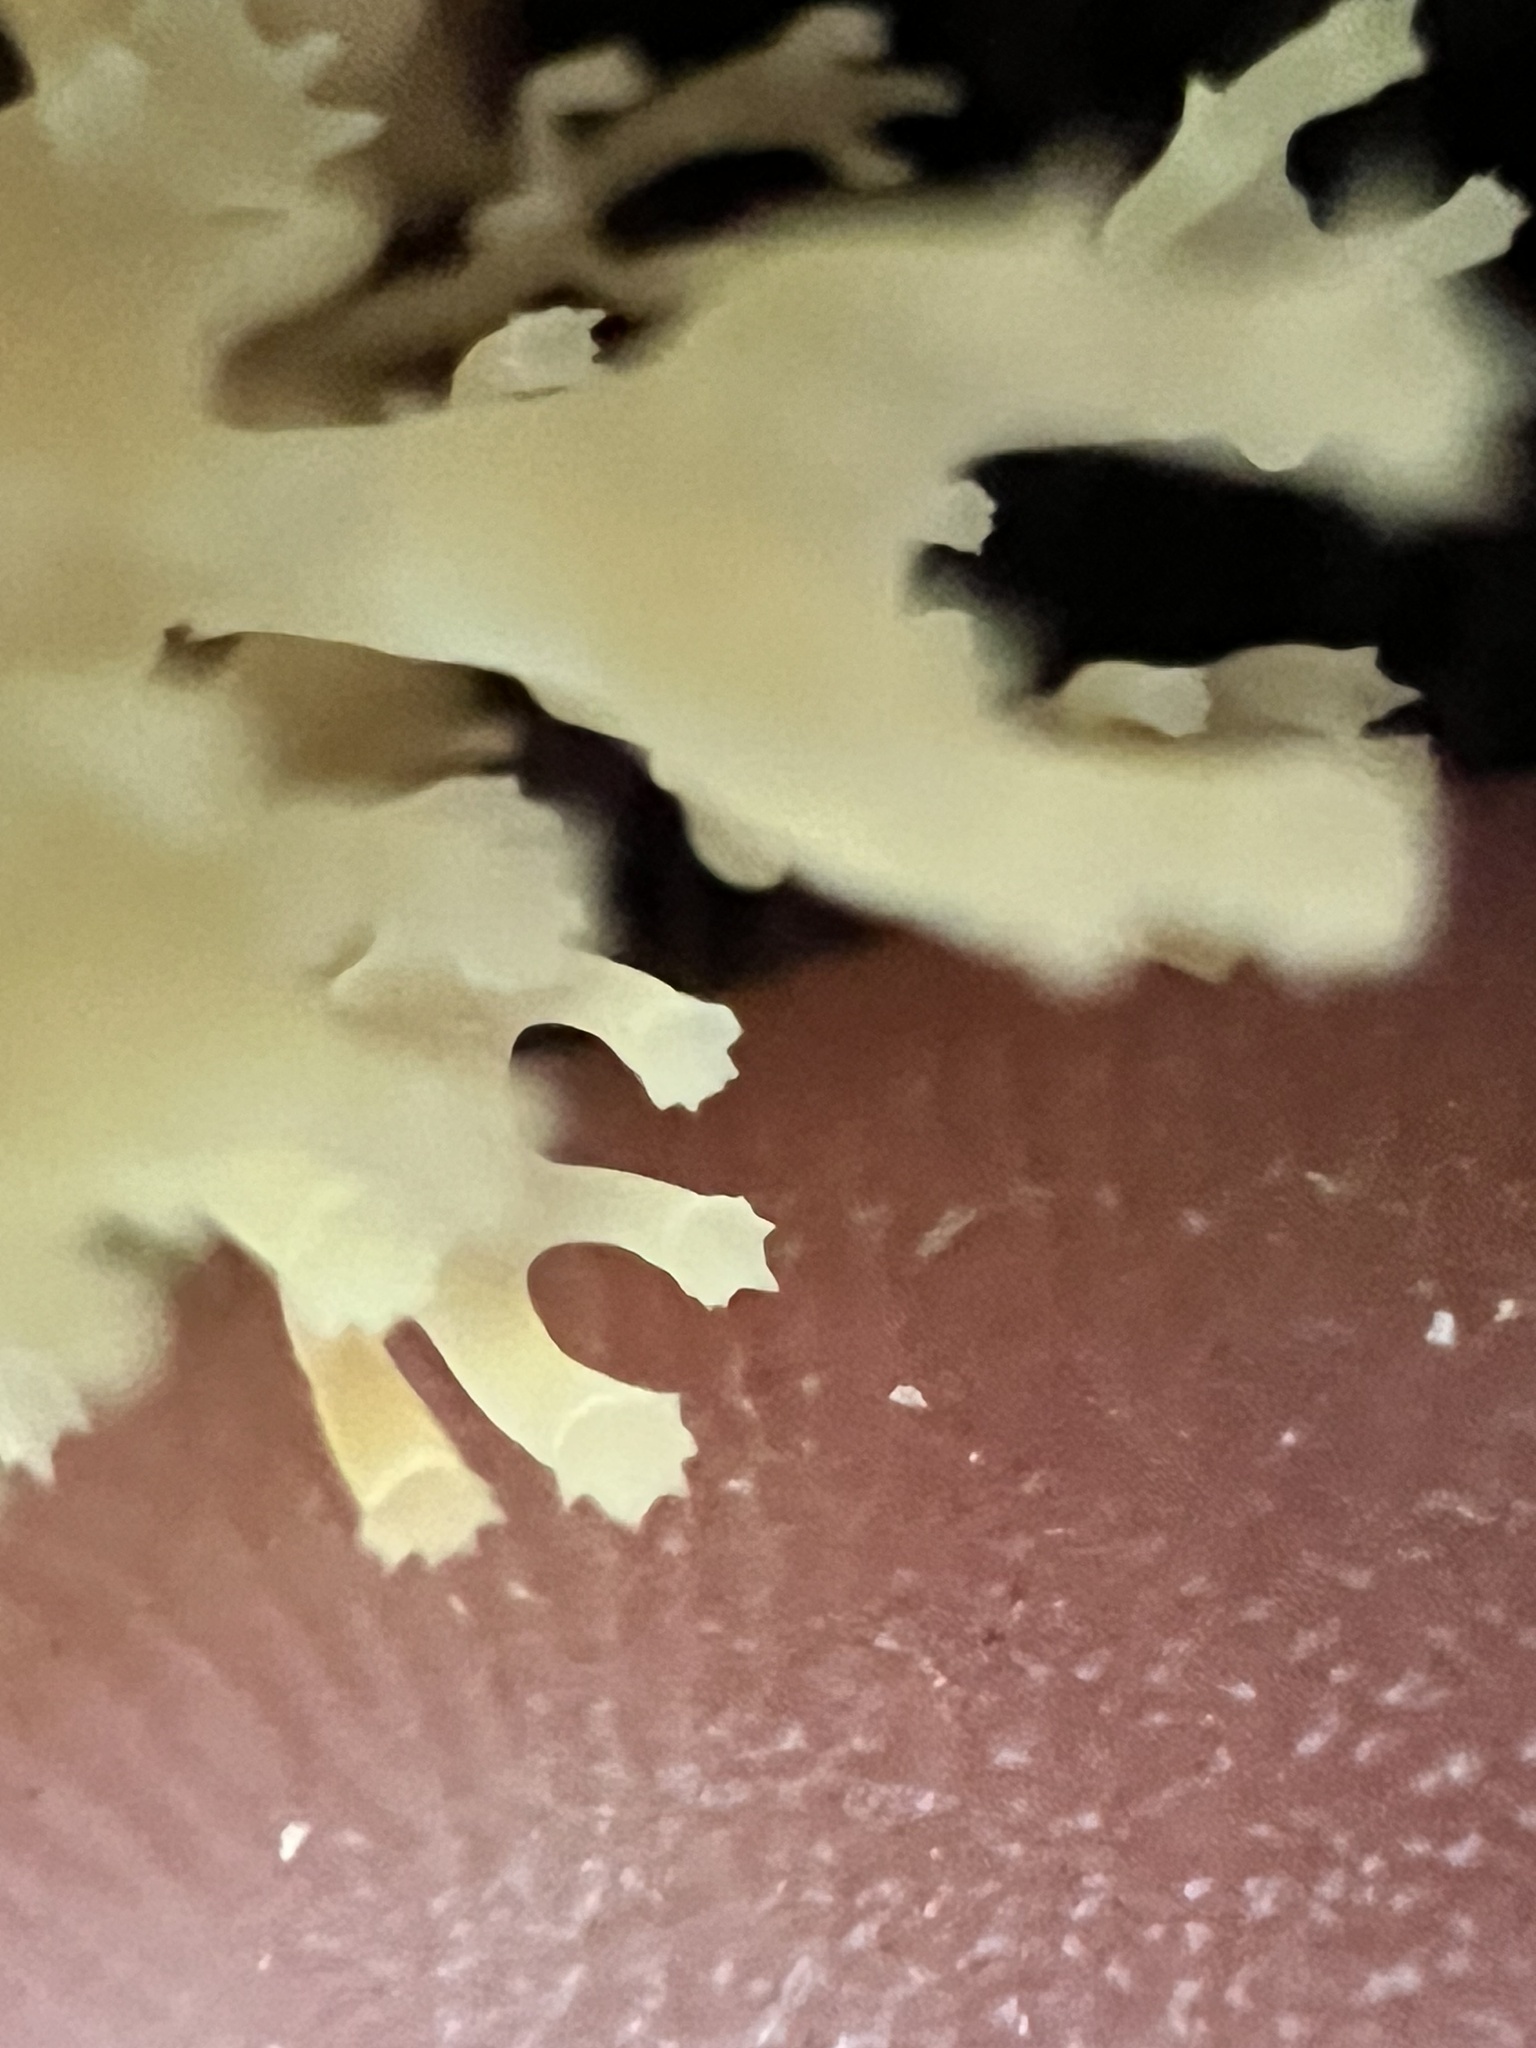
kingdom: Fungi
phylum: Basidiomycota
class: Agaricomycetes
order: Russulales
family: Auriscalpiaceae
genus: Artomyces
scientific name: Artomyces pyxidatus
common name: Crown-tipped coral fungus
